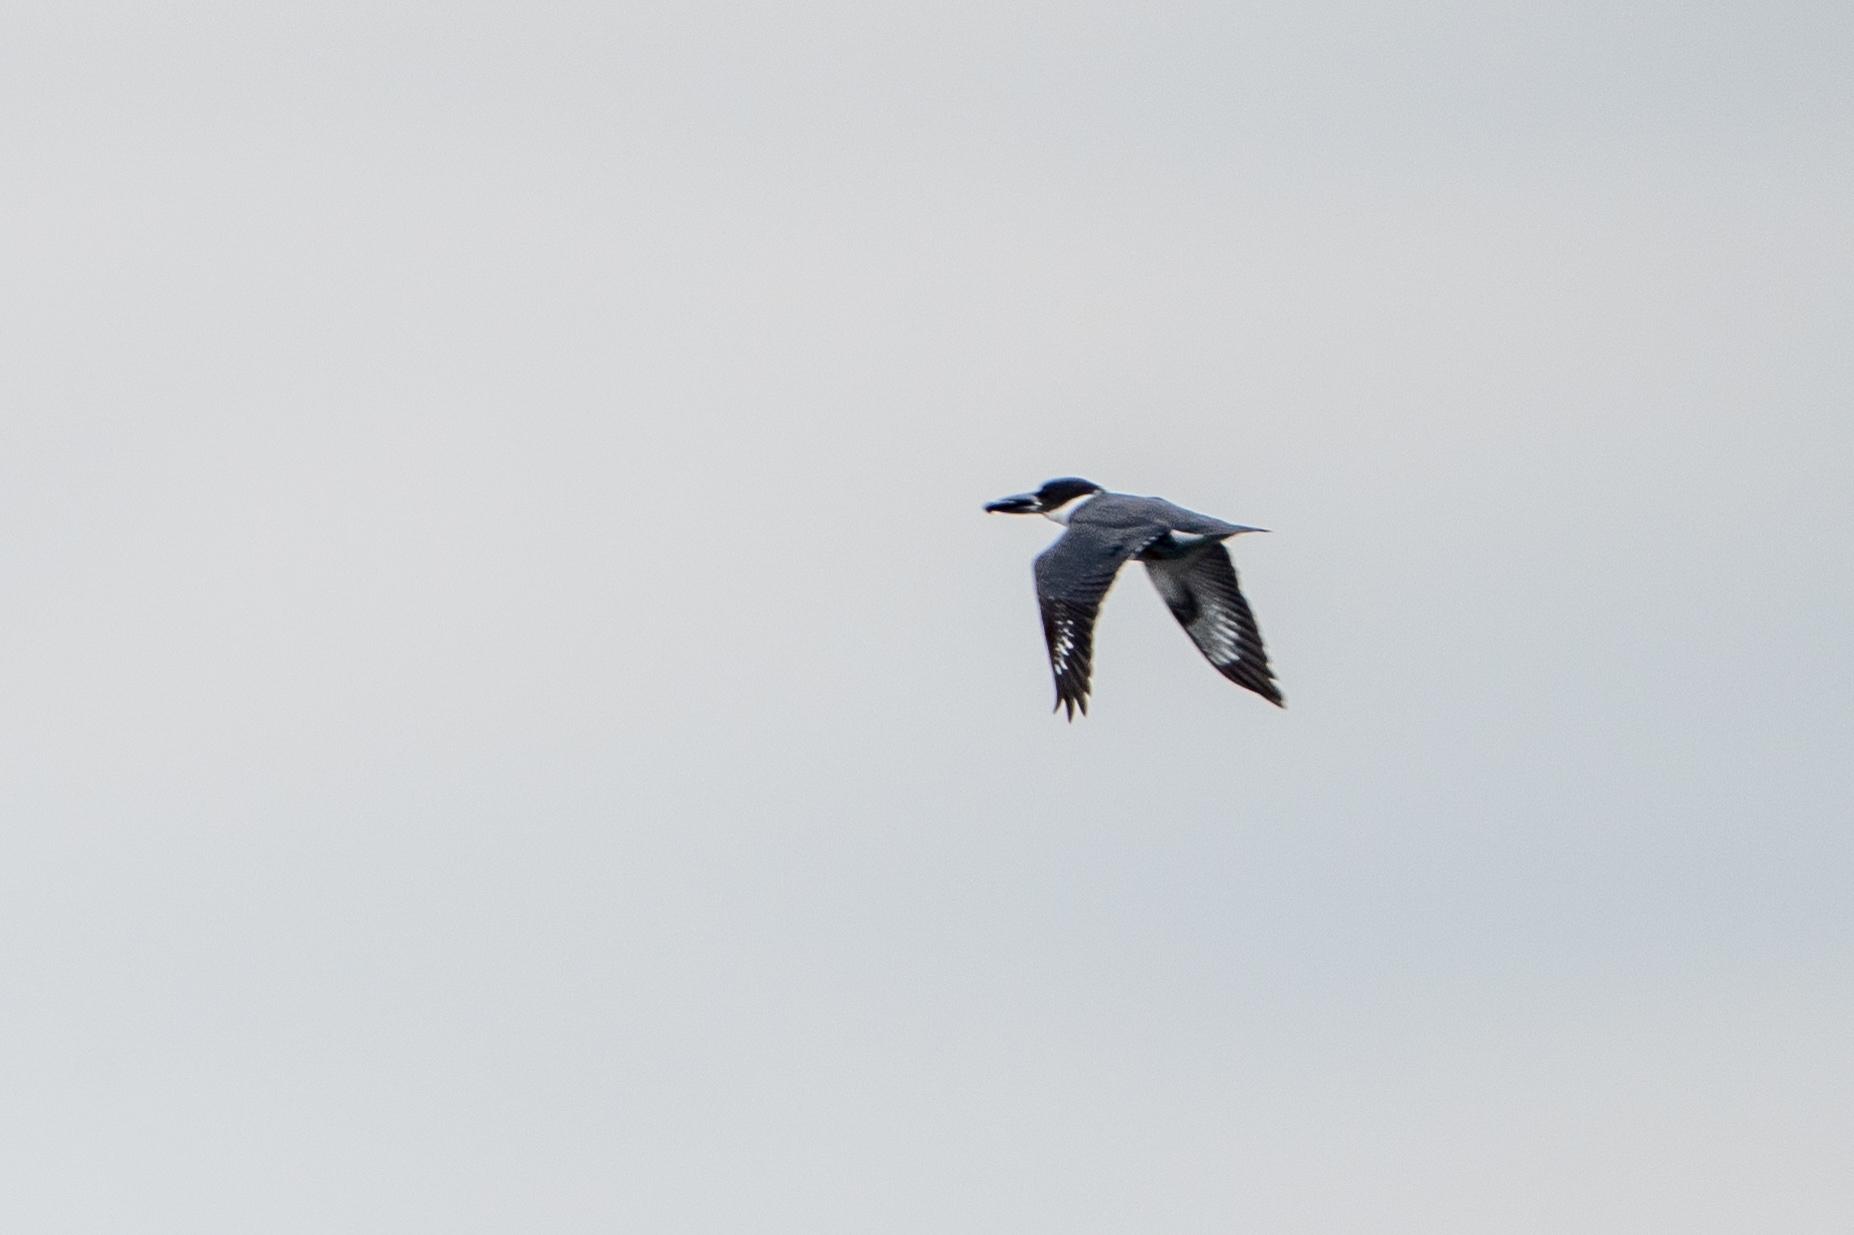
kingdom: Animalia
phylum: Chordata
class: Aves
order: Coraciiformes
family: Alcedinidae
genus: Megaceryle
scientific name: Megaceryle alcyon
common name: Belted kingfisher
